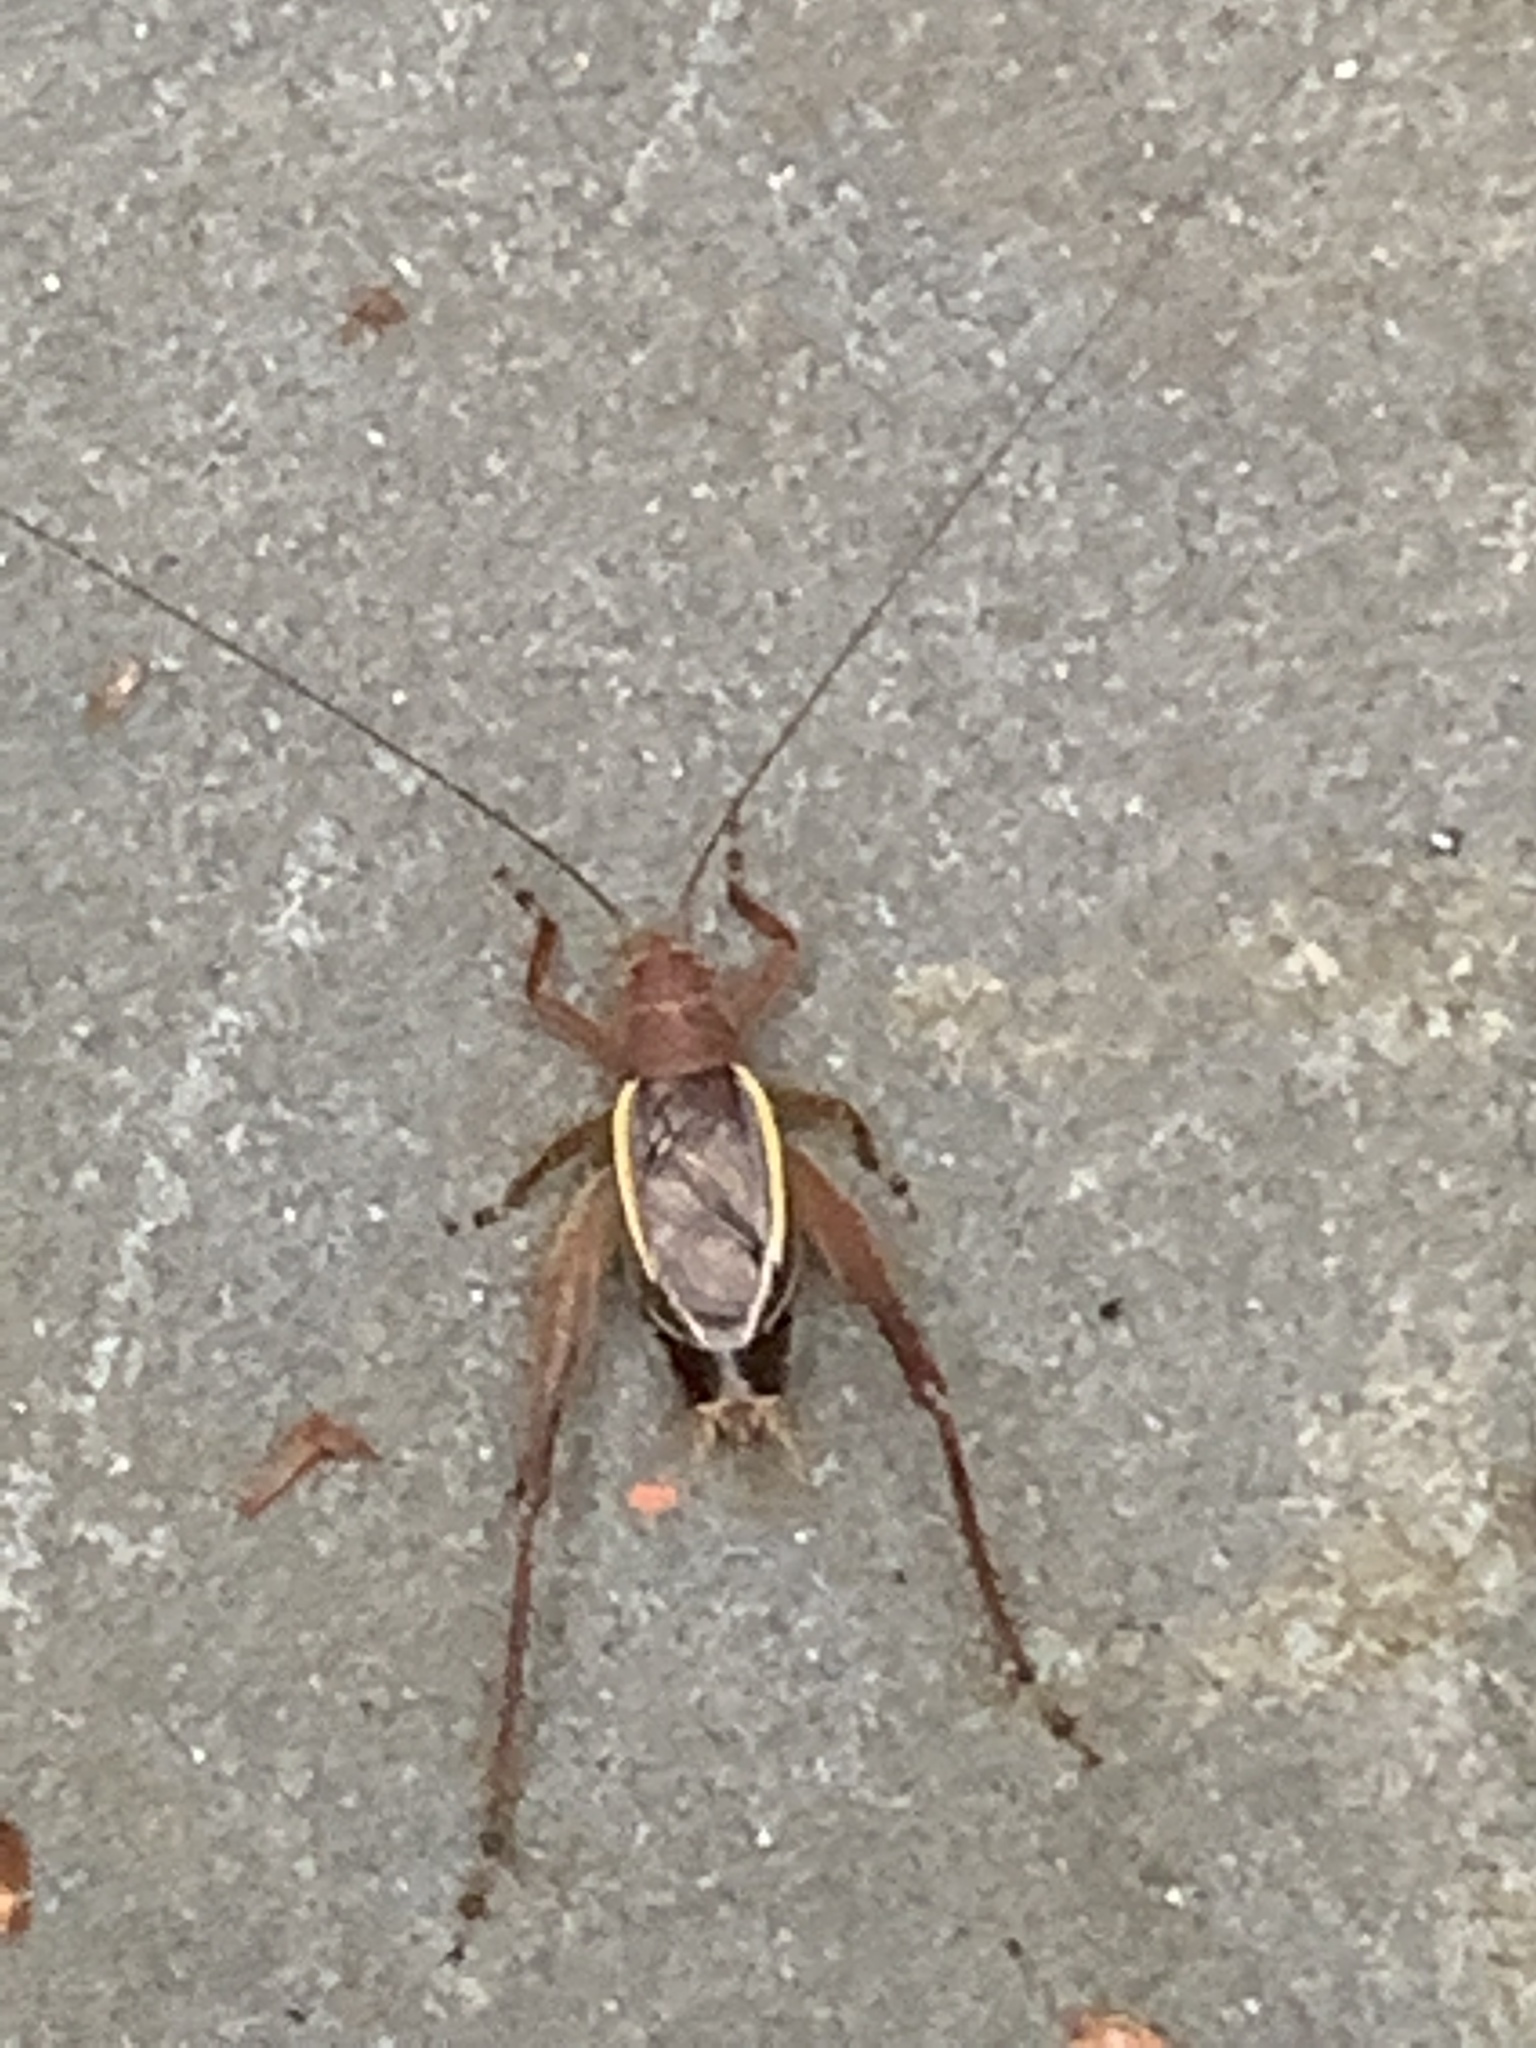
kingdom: Animalia
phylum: Arthropoda
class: Insecta
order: Orthoptera
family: Gryllidae
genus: Hapithus
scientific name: Hapithus agitator
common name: Restless bush cricket
